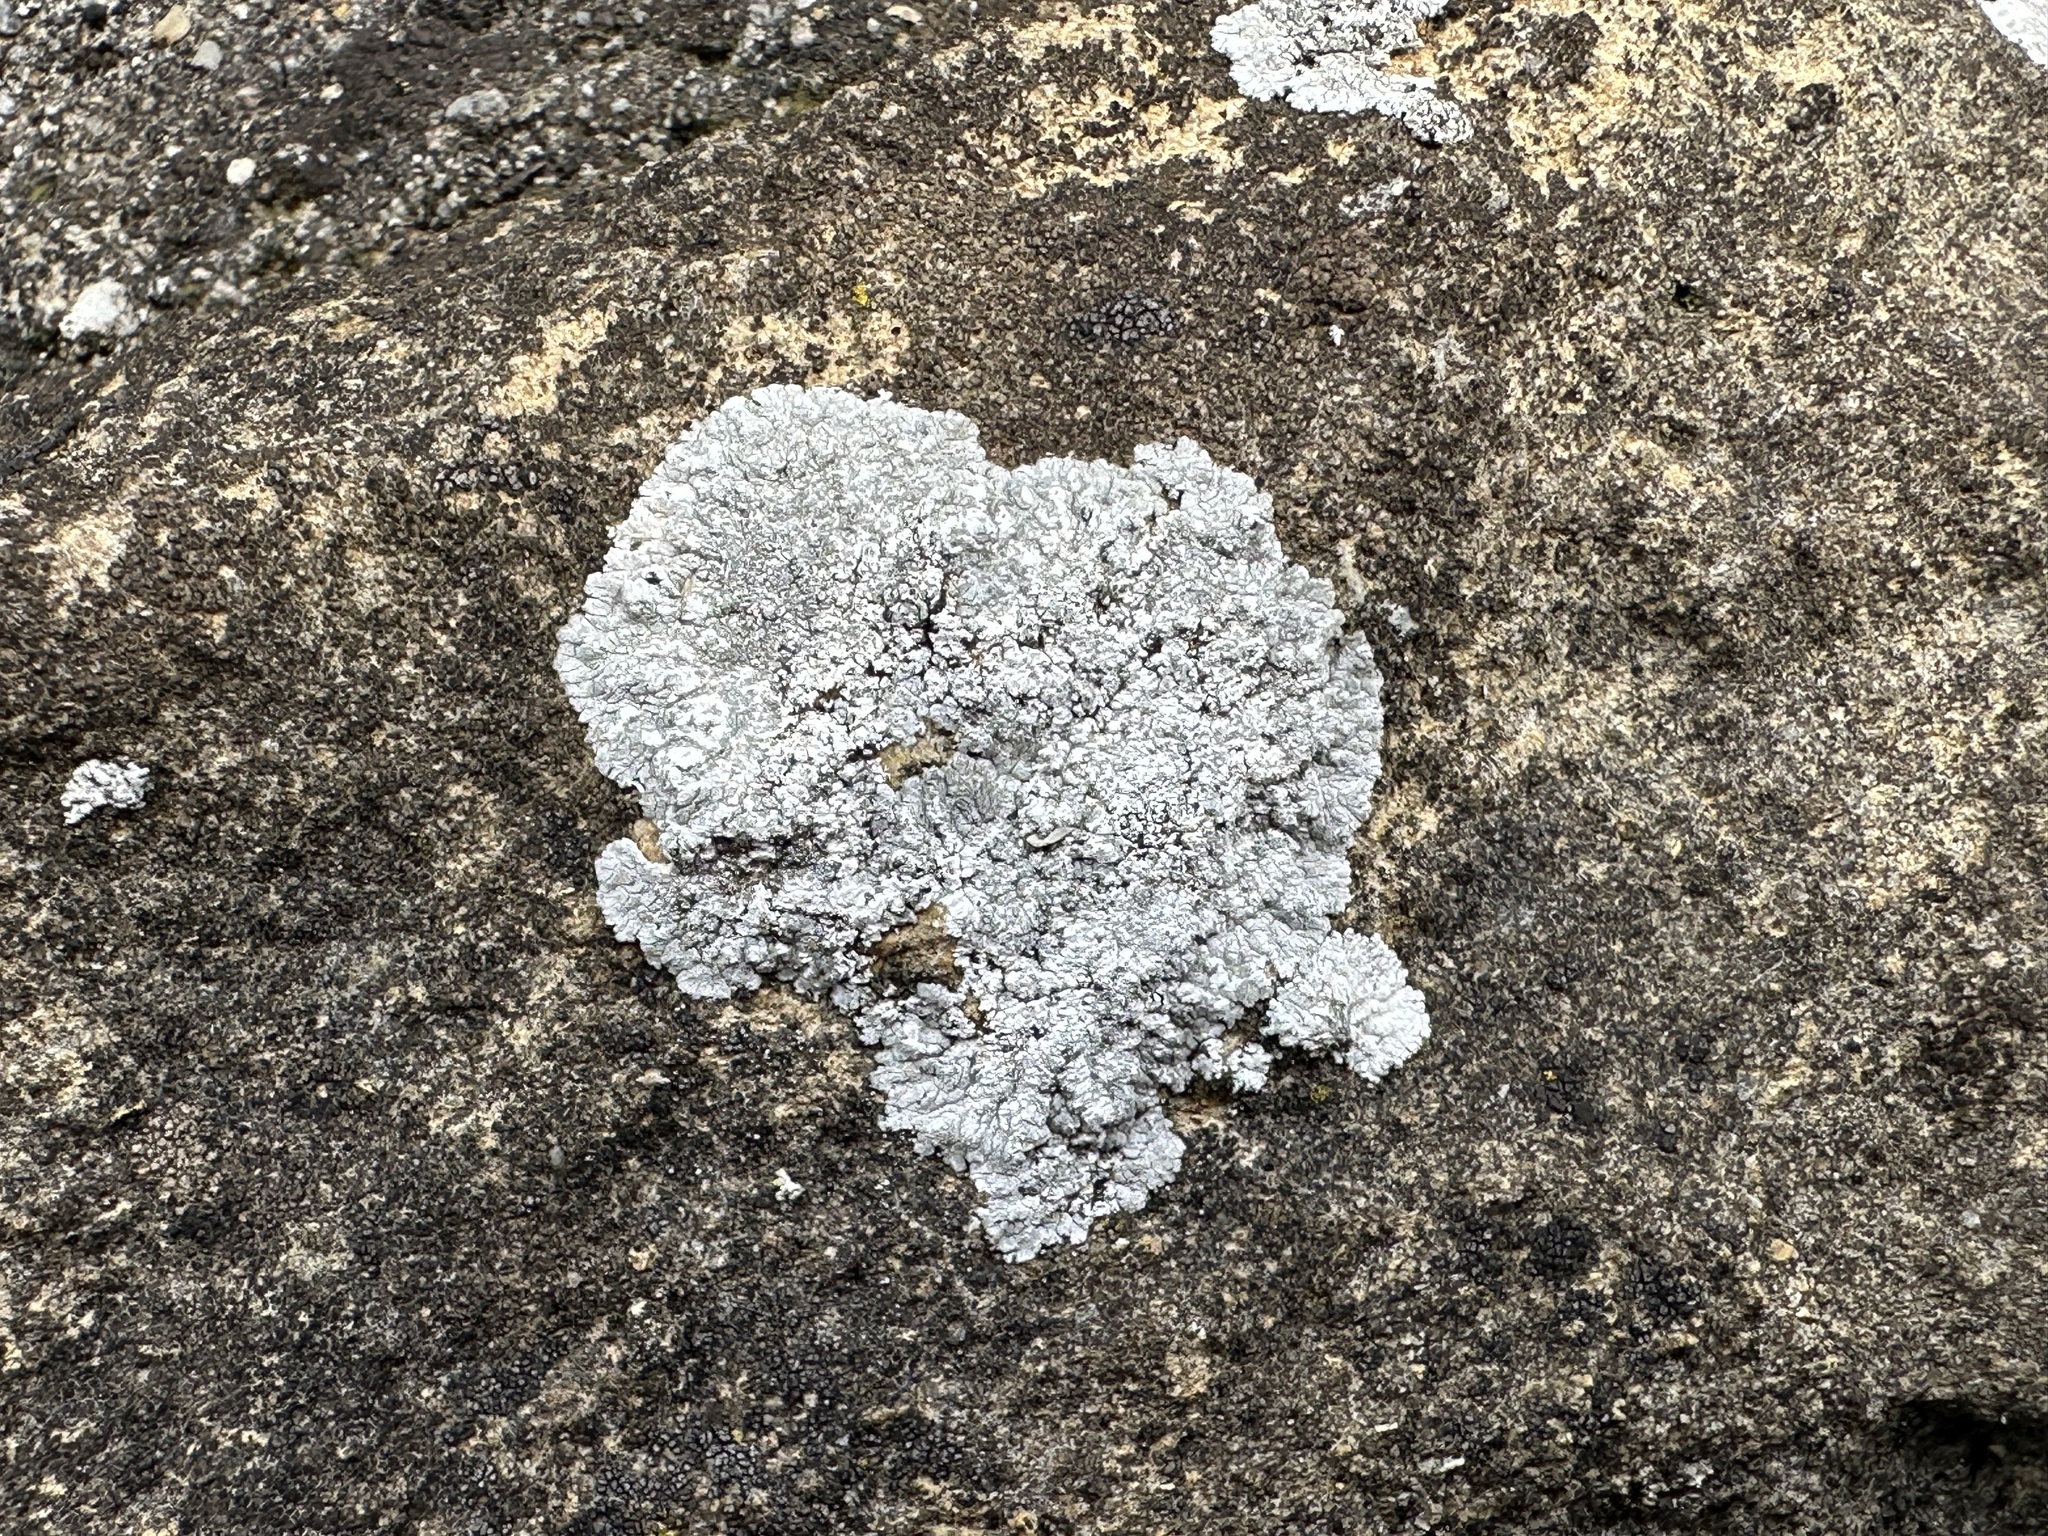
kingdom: Fungi
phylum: Ascomycota
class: Lecanoromycetes
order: Teloschistales
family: Teloschistaceae
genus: Kuettlingeria
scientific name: Kuettlingeria teicholyta
